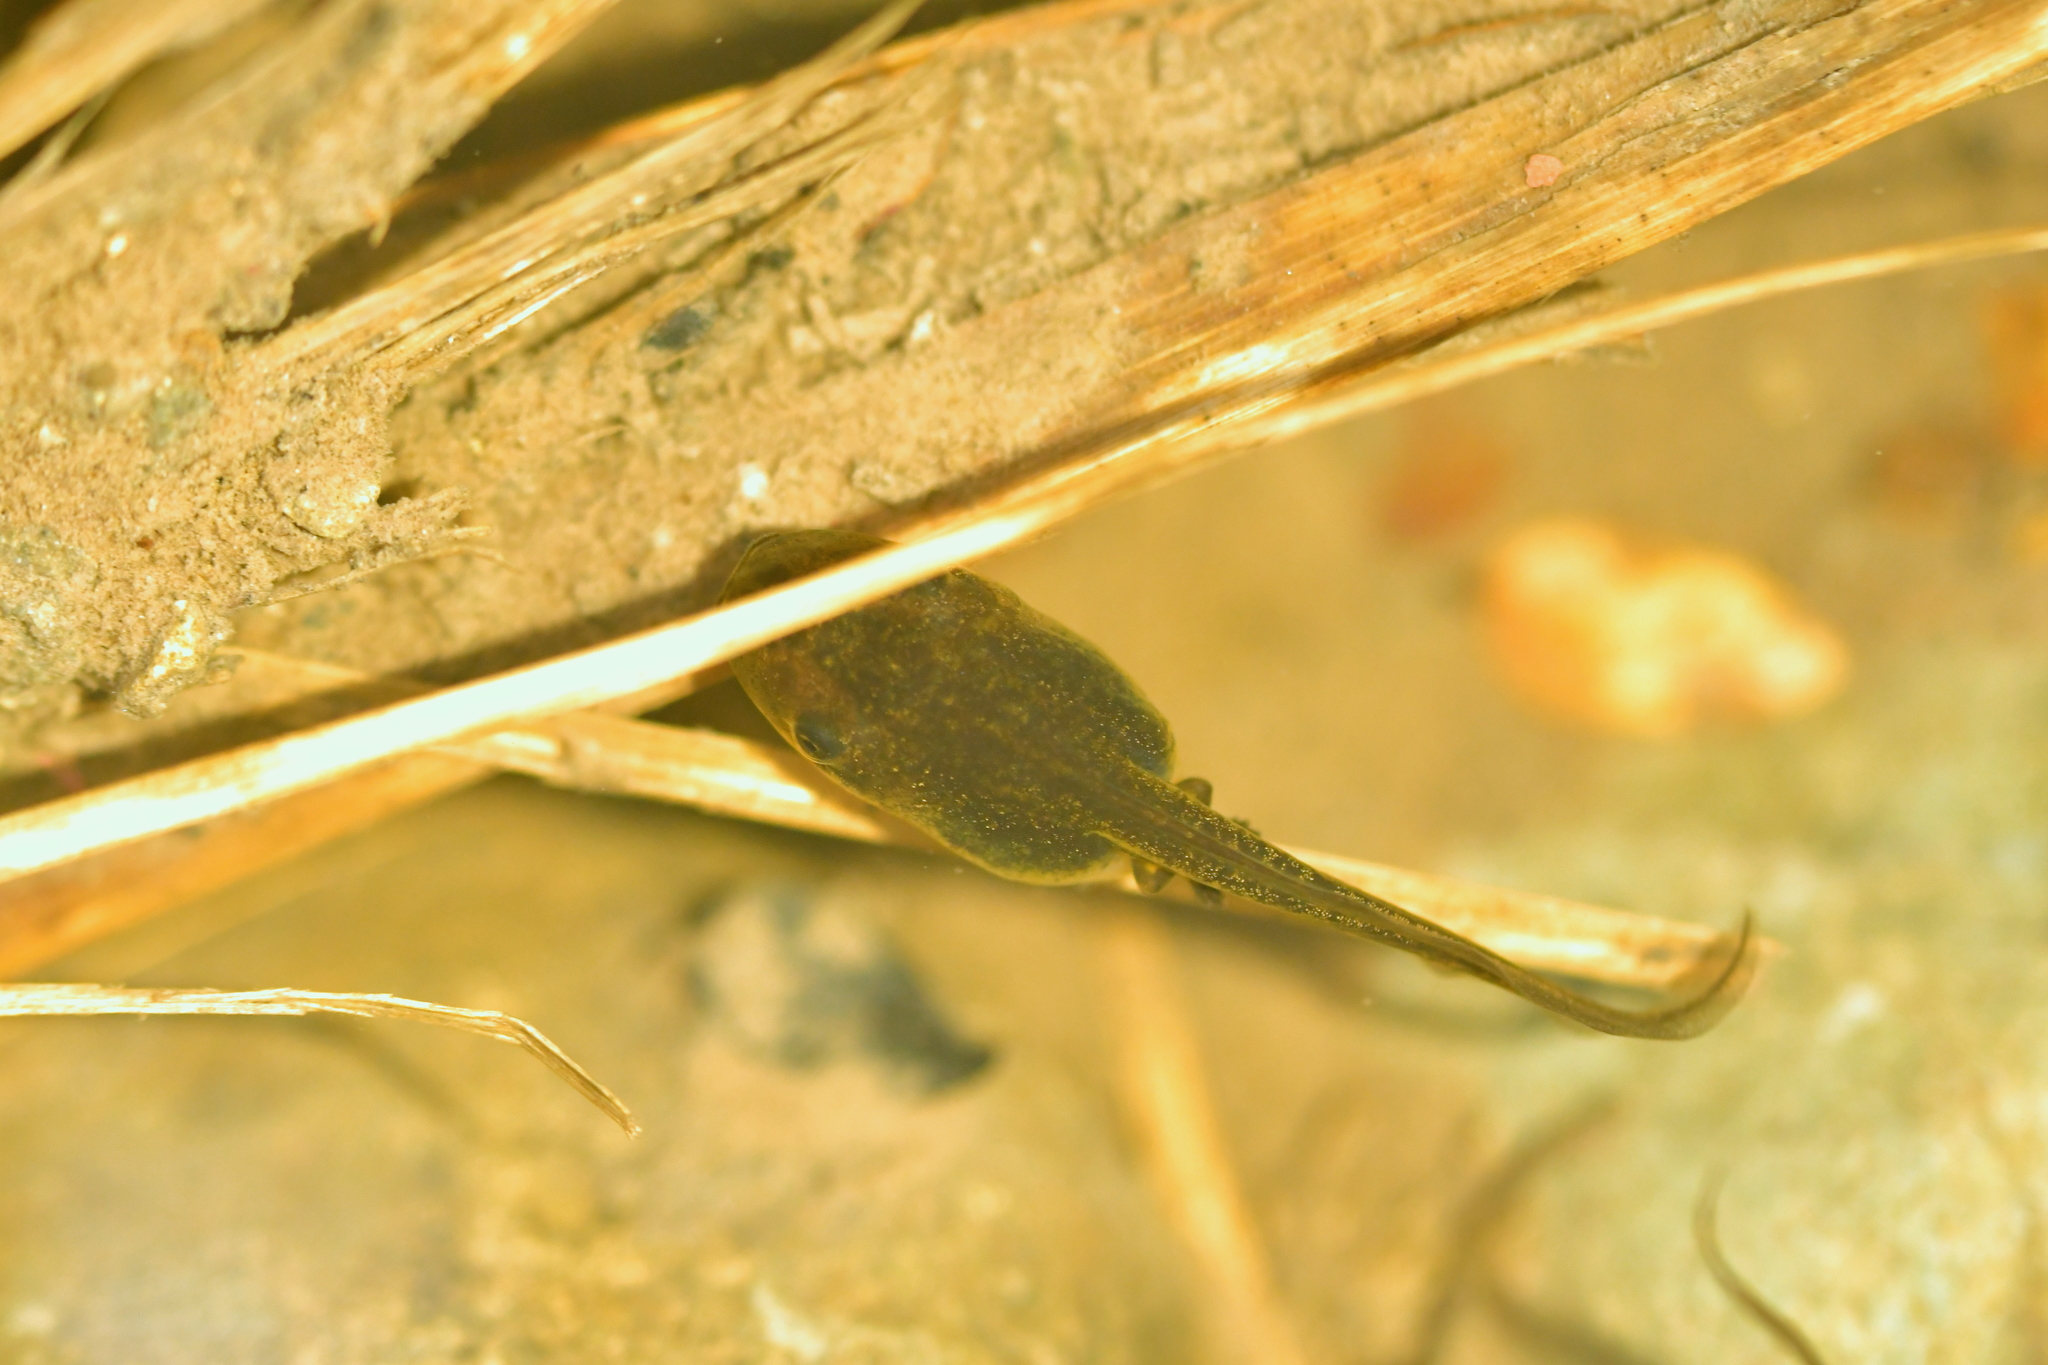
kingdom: Animalia
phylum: Chordata
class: Amphibia
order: Anura
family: Pelodryadidae
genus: Litoria
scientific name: Litoria ewingii
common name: Southern brown tree frog
